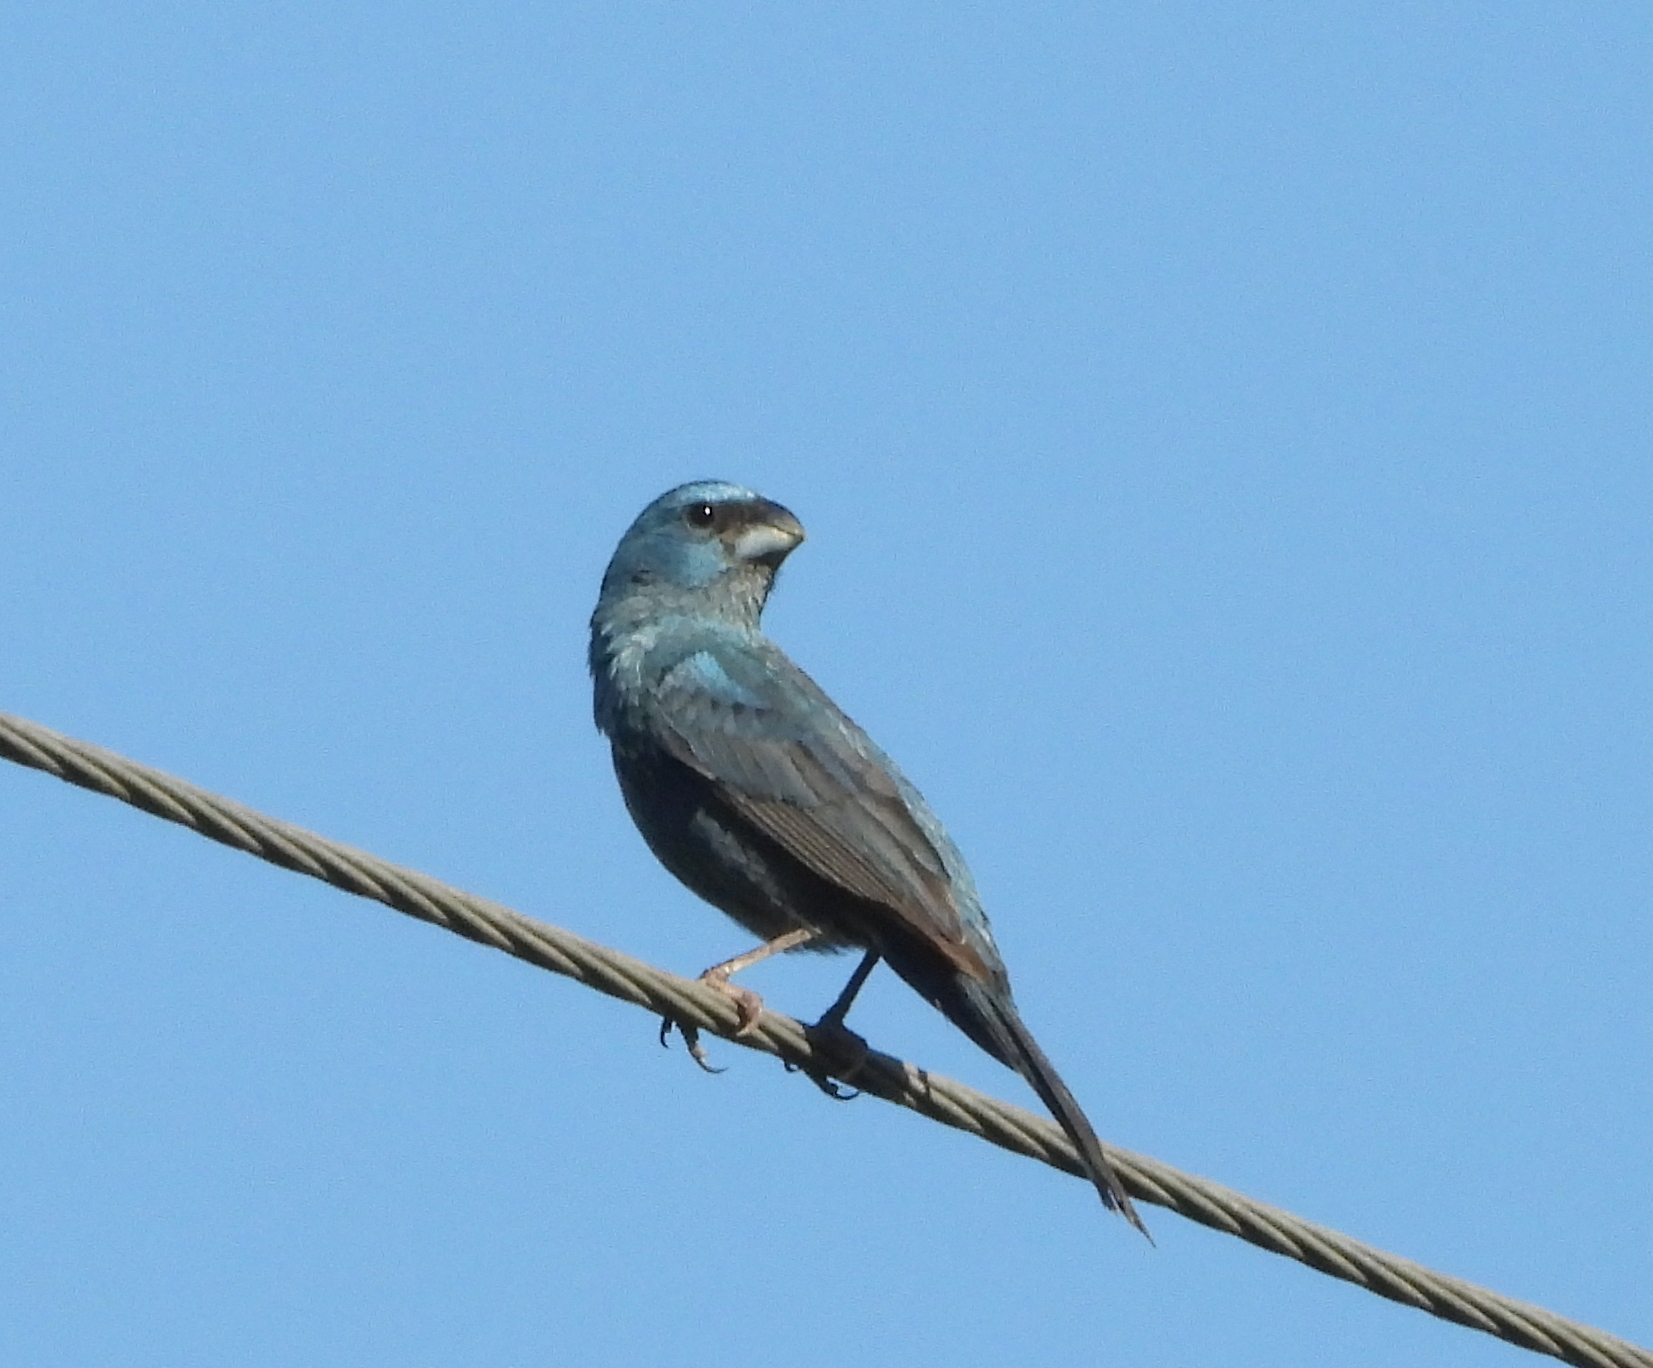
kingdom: Animalia
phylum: Chordata
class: Aves
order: Passeriformes
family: Cardinalidae
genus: Cyanoloxia
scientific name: Cyanoloxia glaucocaerulea
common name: Glaucous-blue grosbeak
